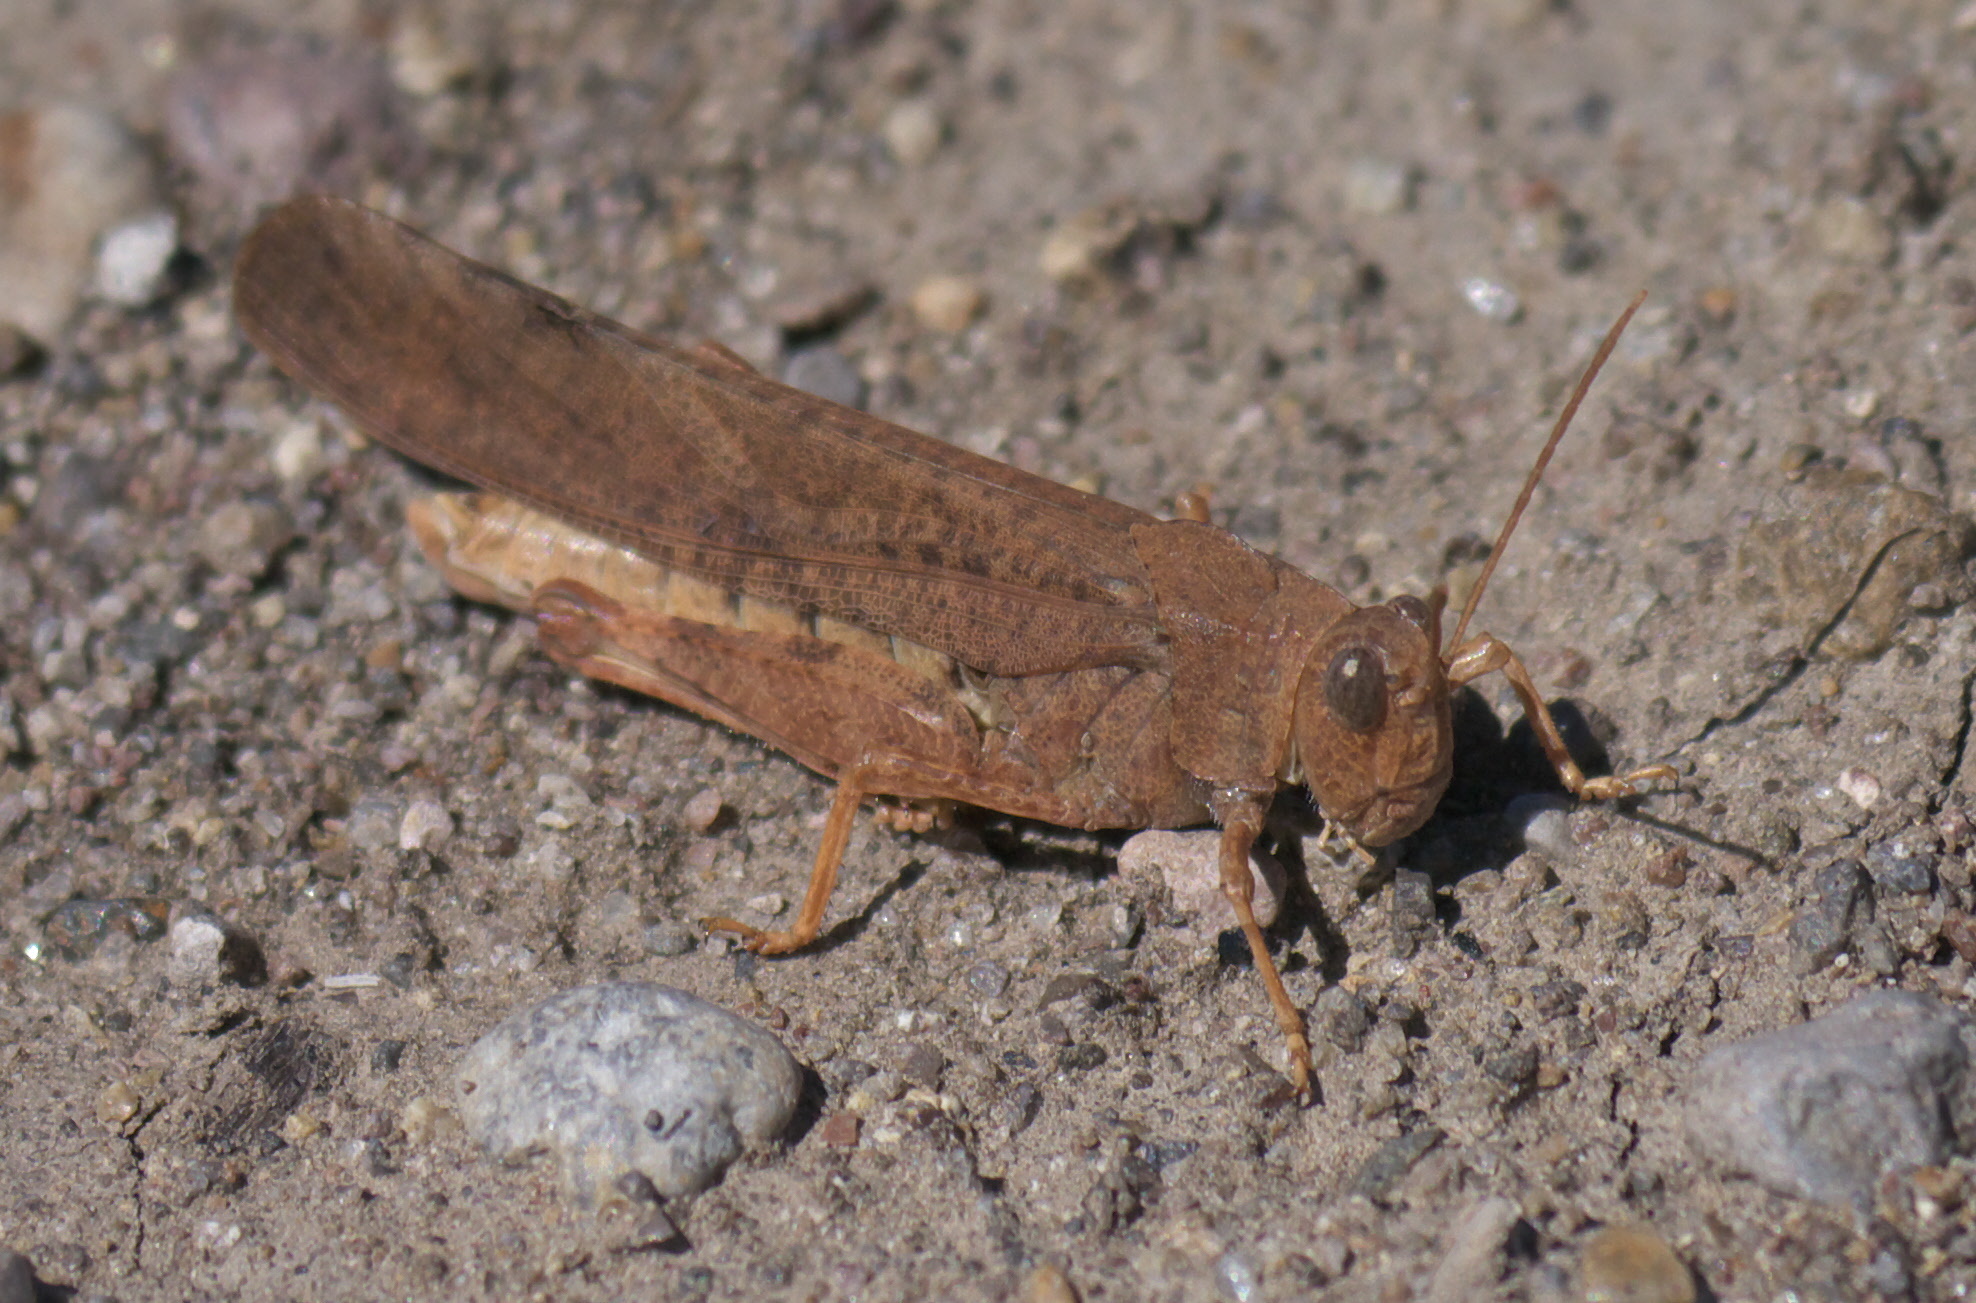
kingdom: Animalia
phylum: Arthropoda
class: Insecta
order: Orthoptera
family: Acrididae
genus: Dissosteira
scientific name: Dissosteira carolina
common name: Carolina grasshopper
